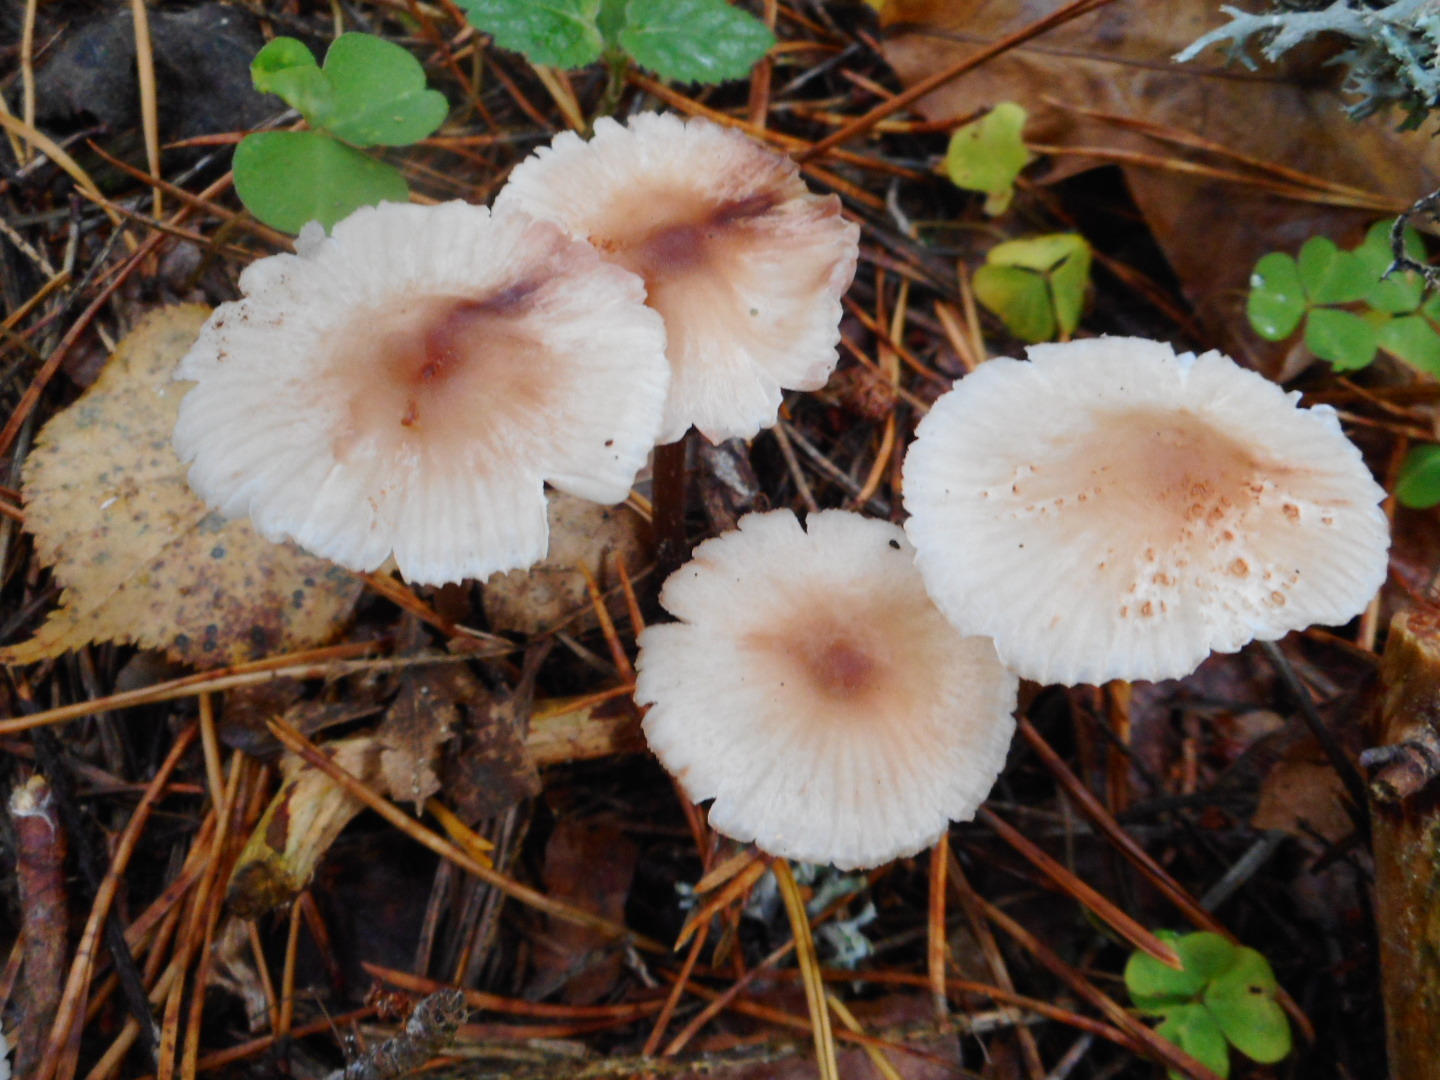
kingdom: Fungi
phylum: Basidiomycota
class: Agaricomycetes
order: Agaricales
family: Mycenaceae
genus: Mycena
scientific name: Mycena zephirus
